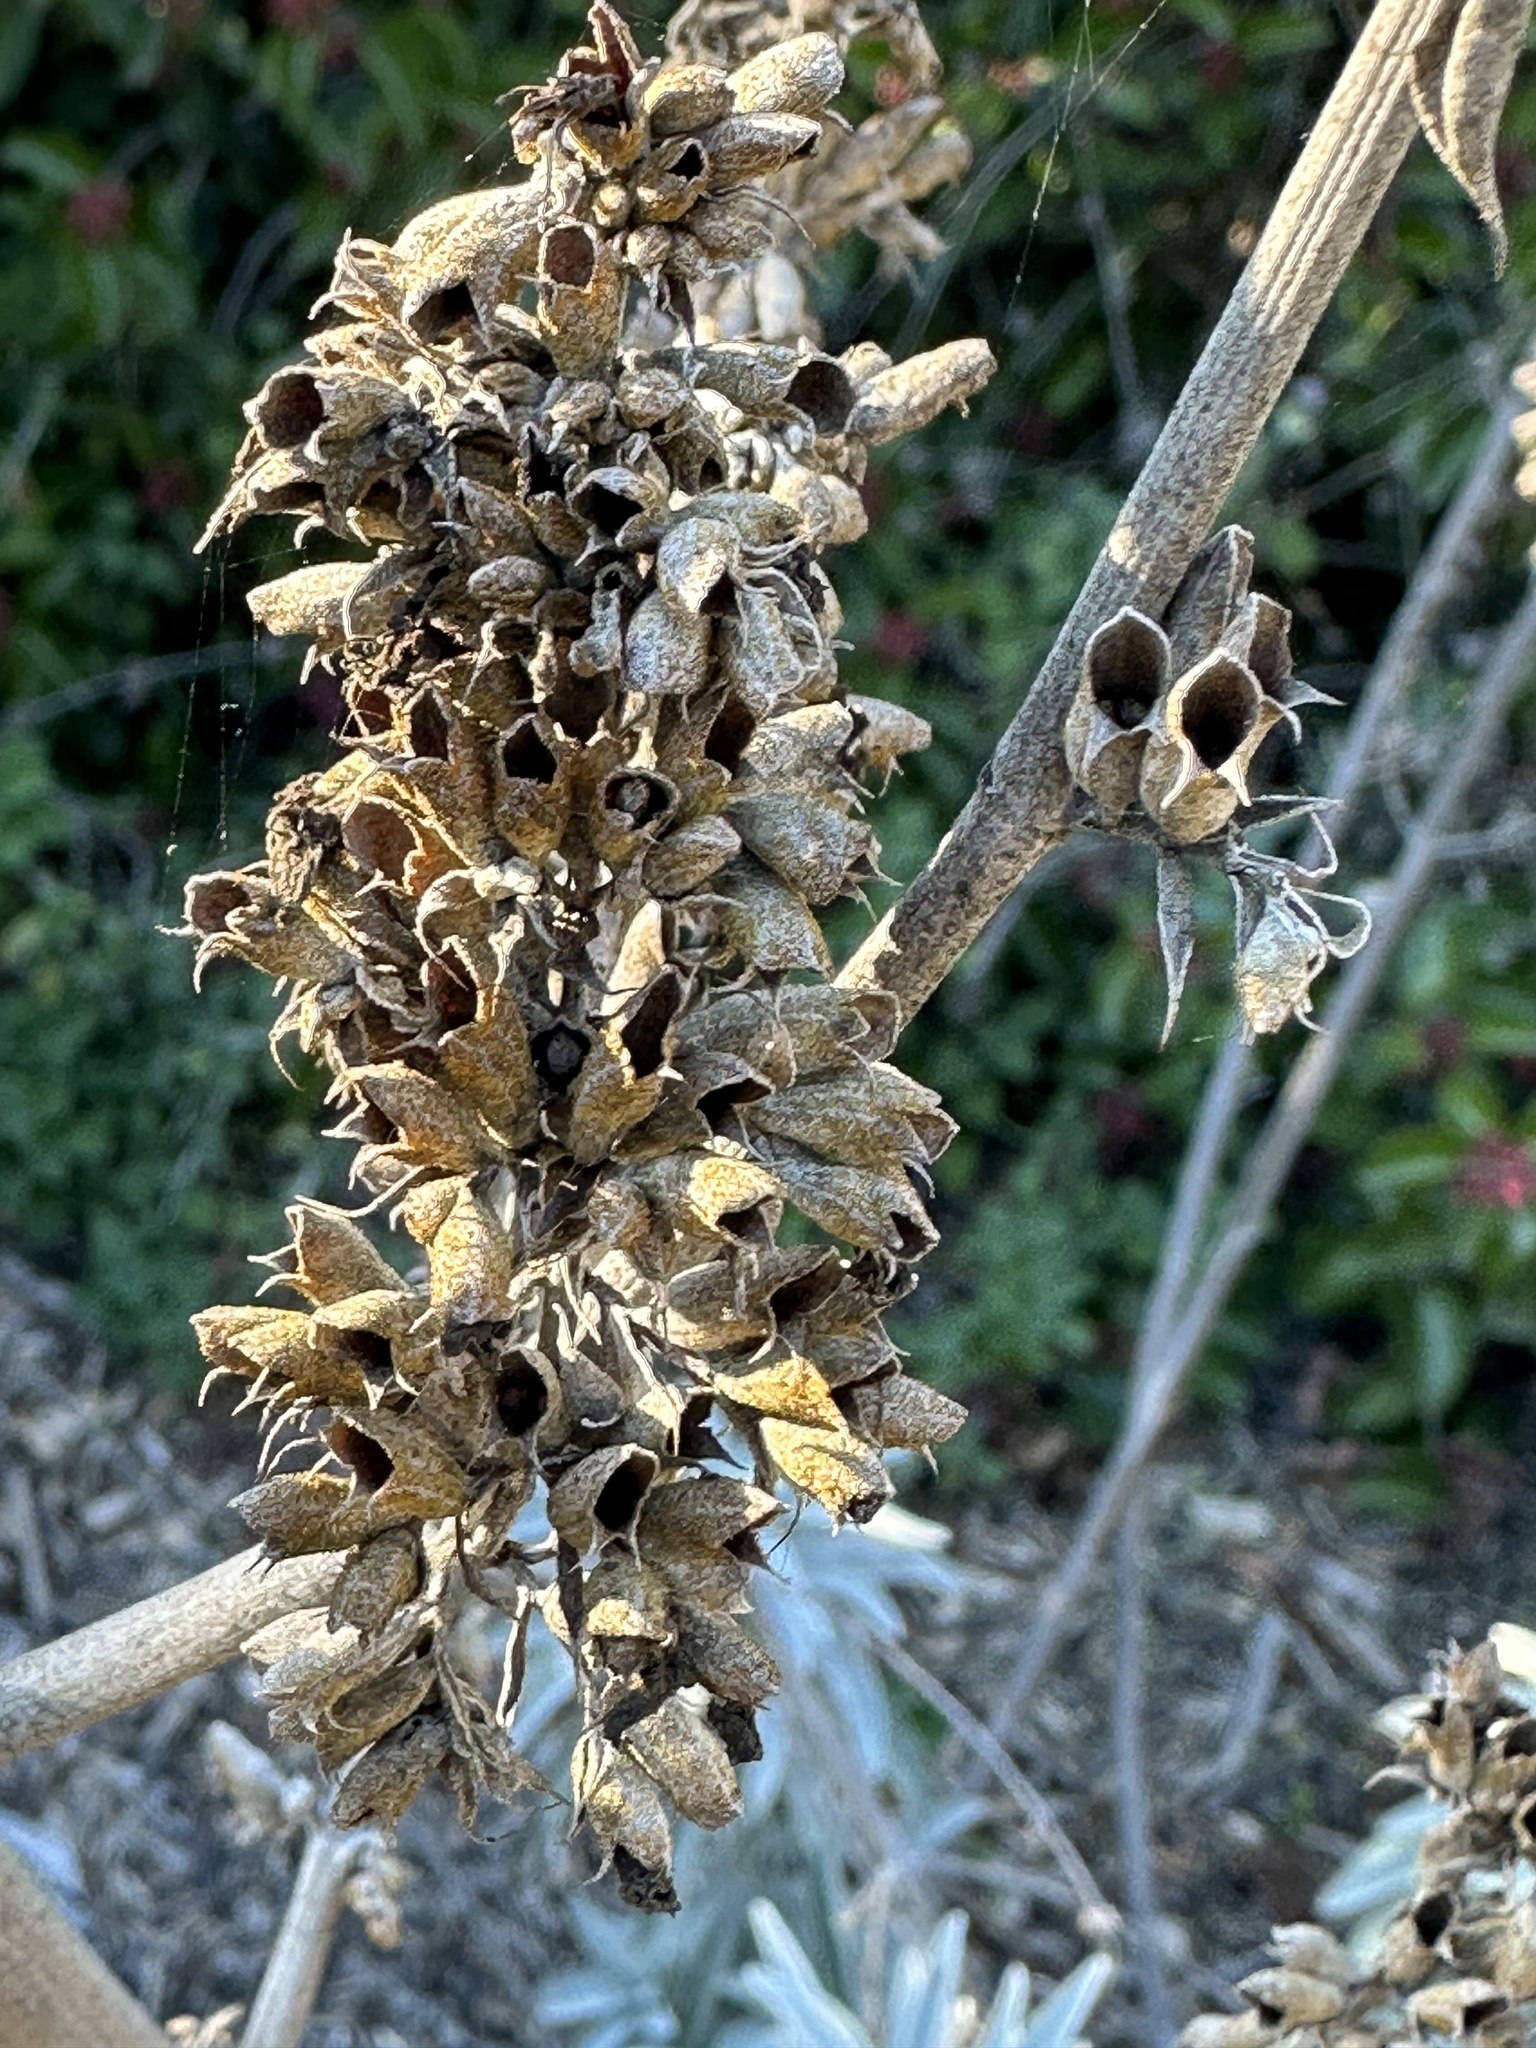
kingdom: Plantae
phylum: Tracheophyta
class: Magnoliopsida
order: Lamiales
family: Lamiaceae
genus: Salvia
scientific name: Salvia apiana
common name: White sage
